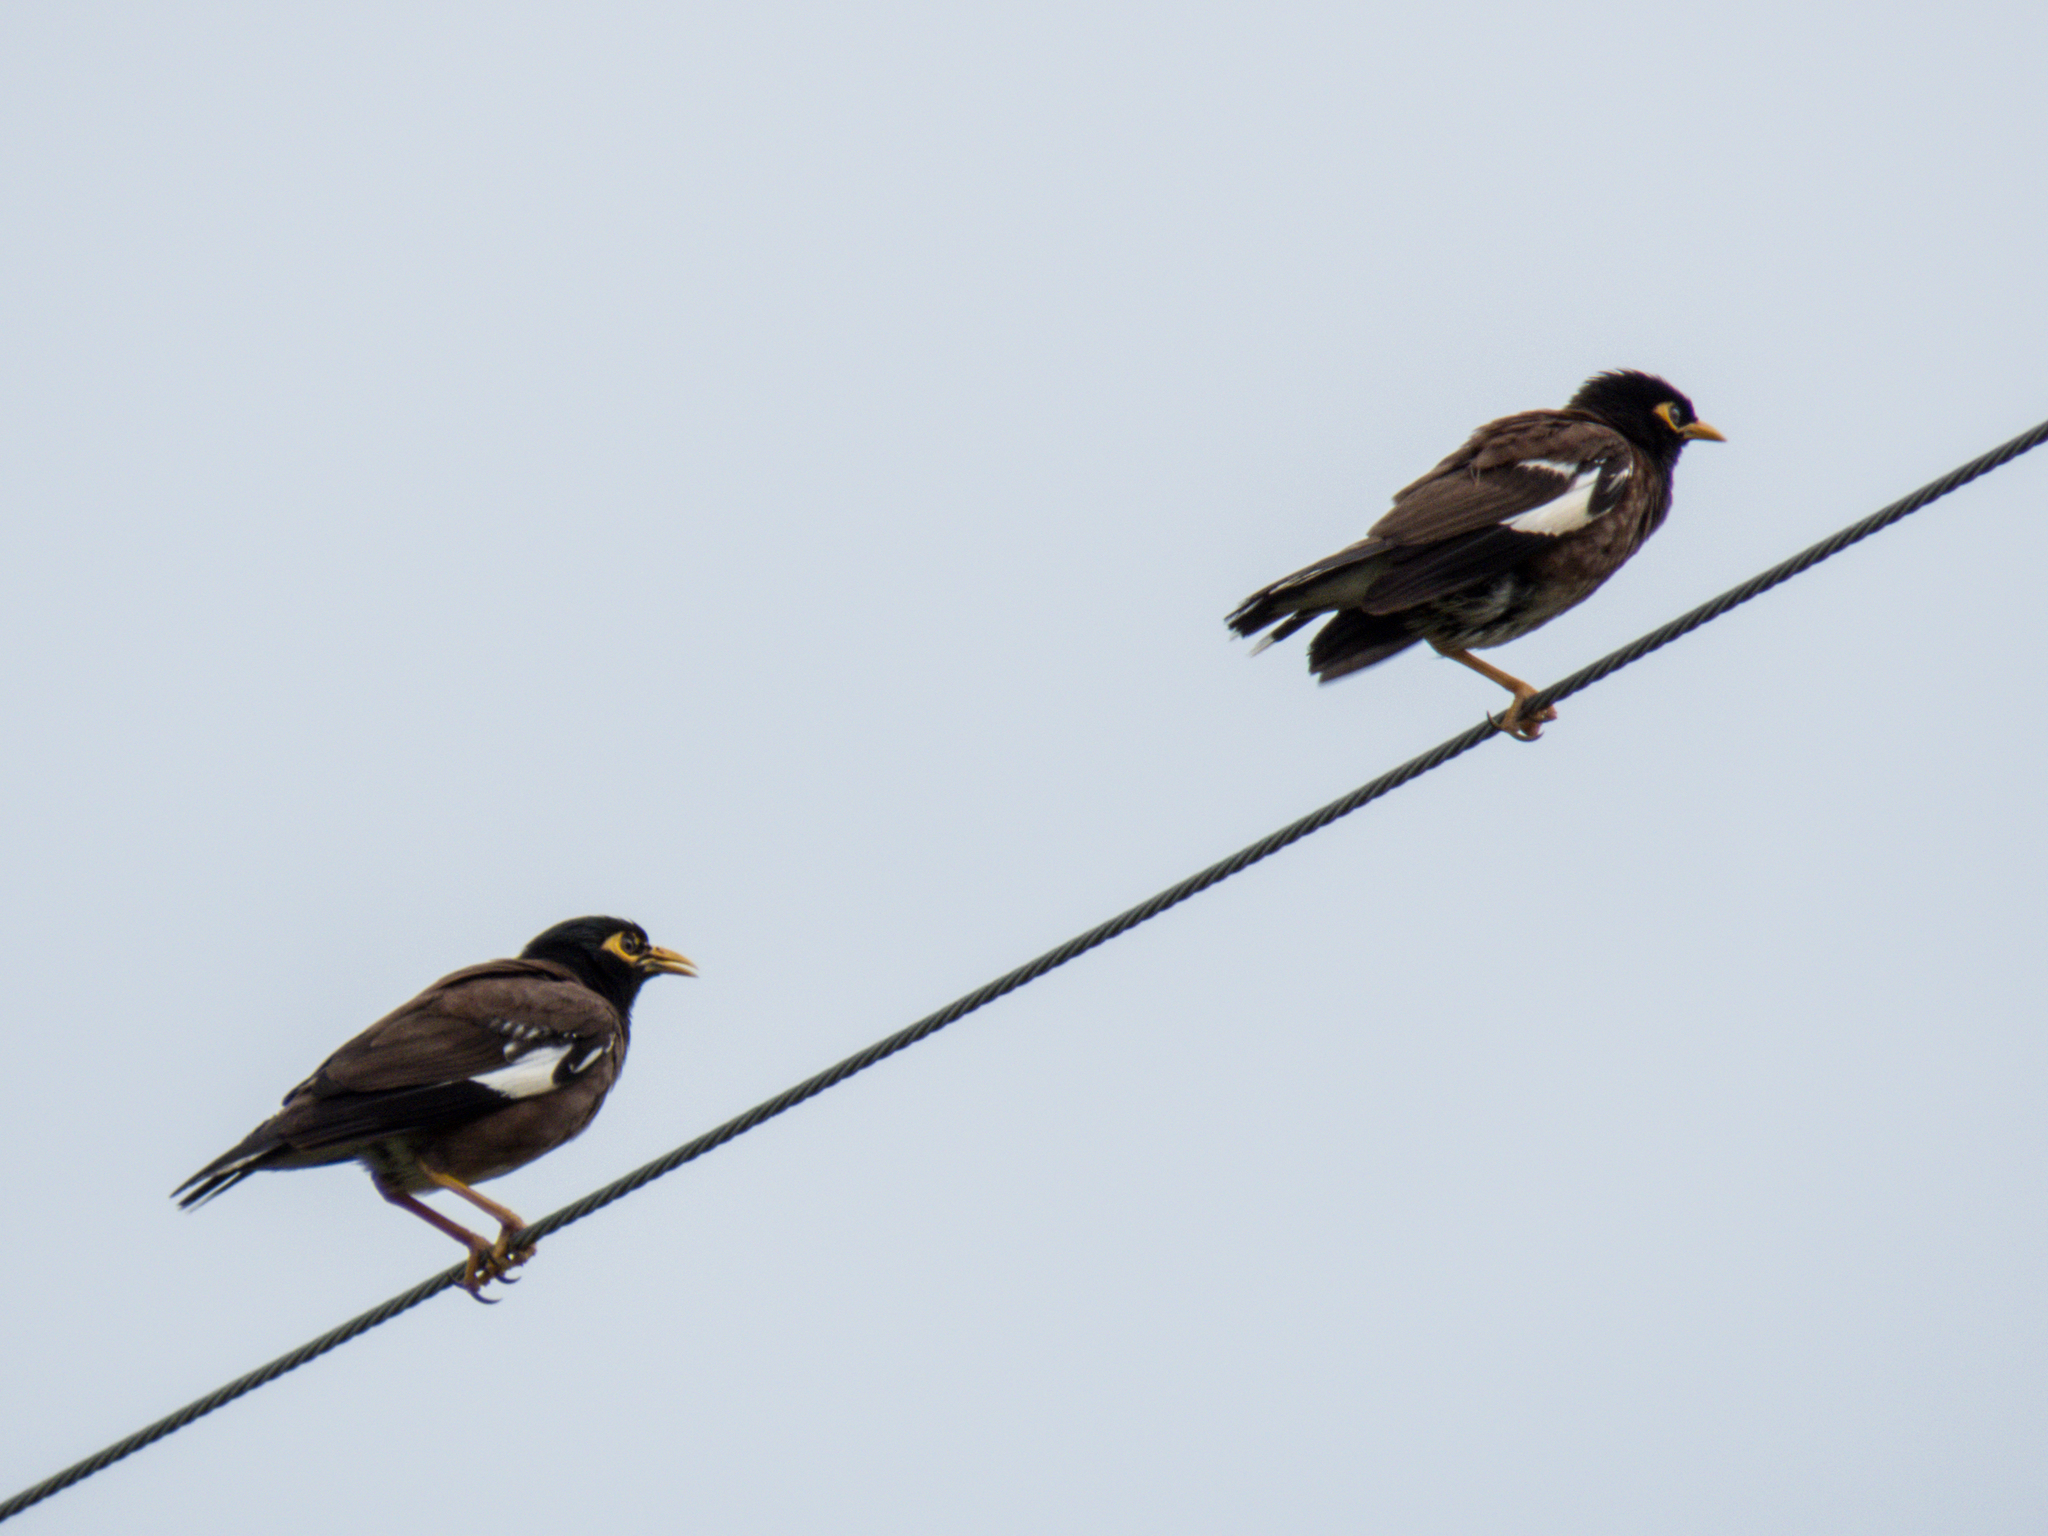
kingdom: Animalia
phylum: Chordata
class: Aves
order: Passeriformes
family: Sturnidae
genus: Acridotheres
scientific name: Acridotheres tristis
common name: Common myna
